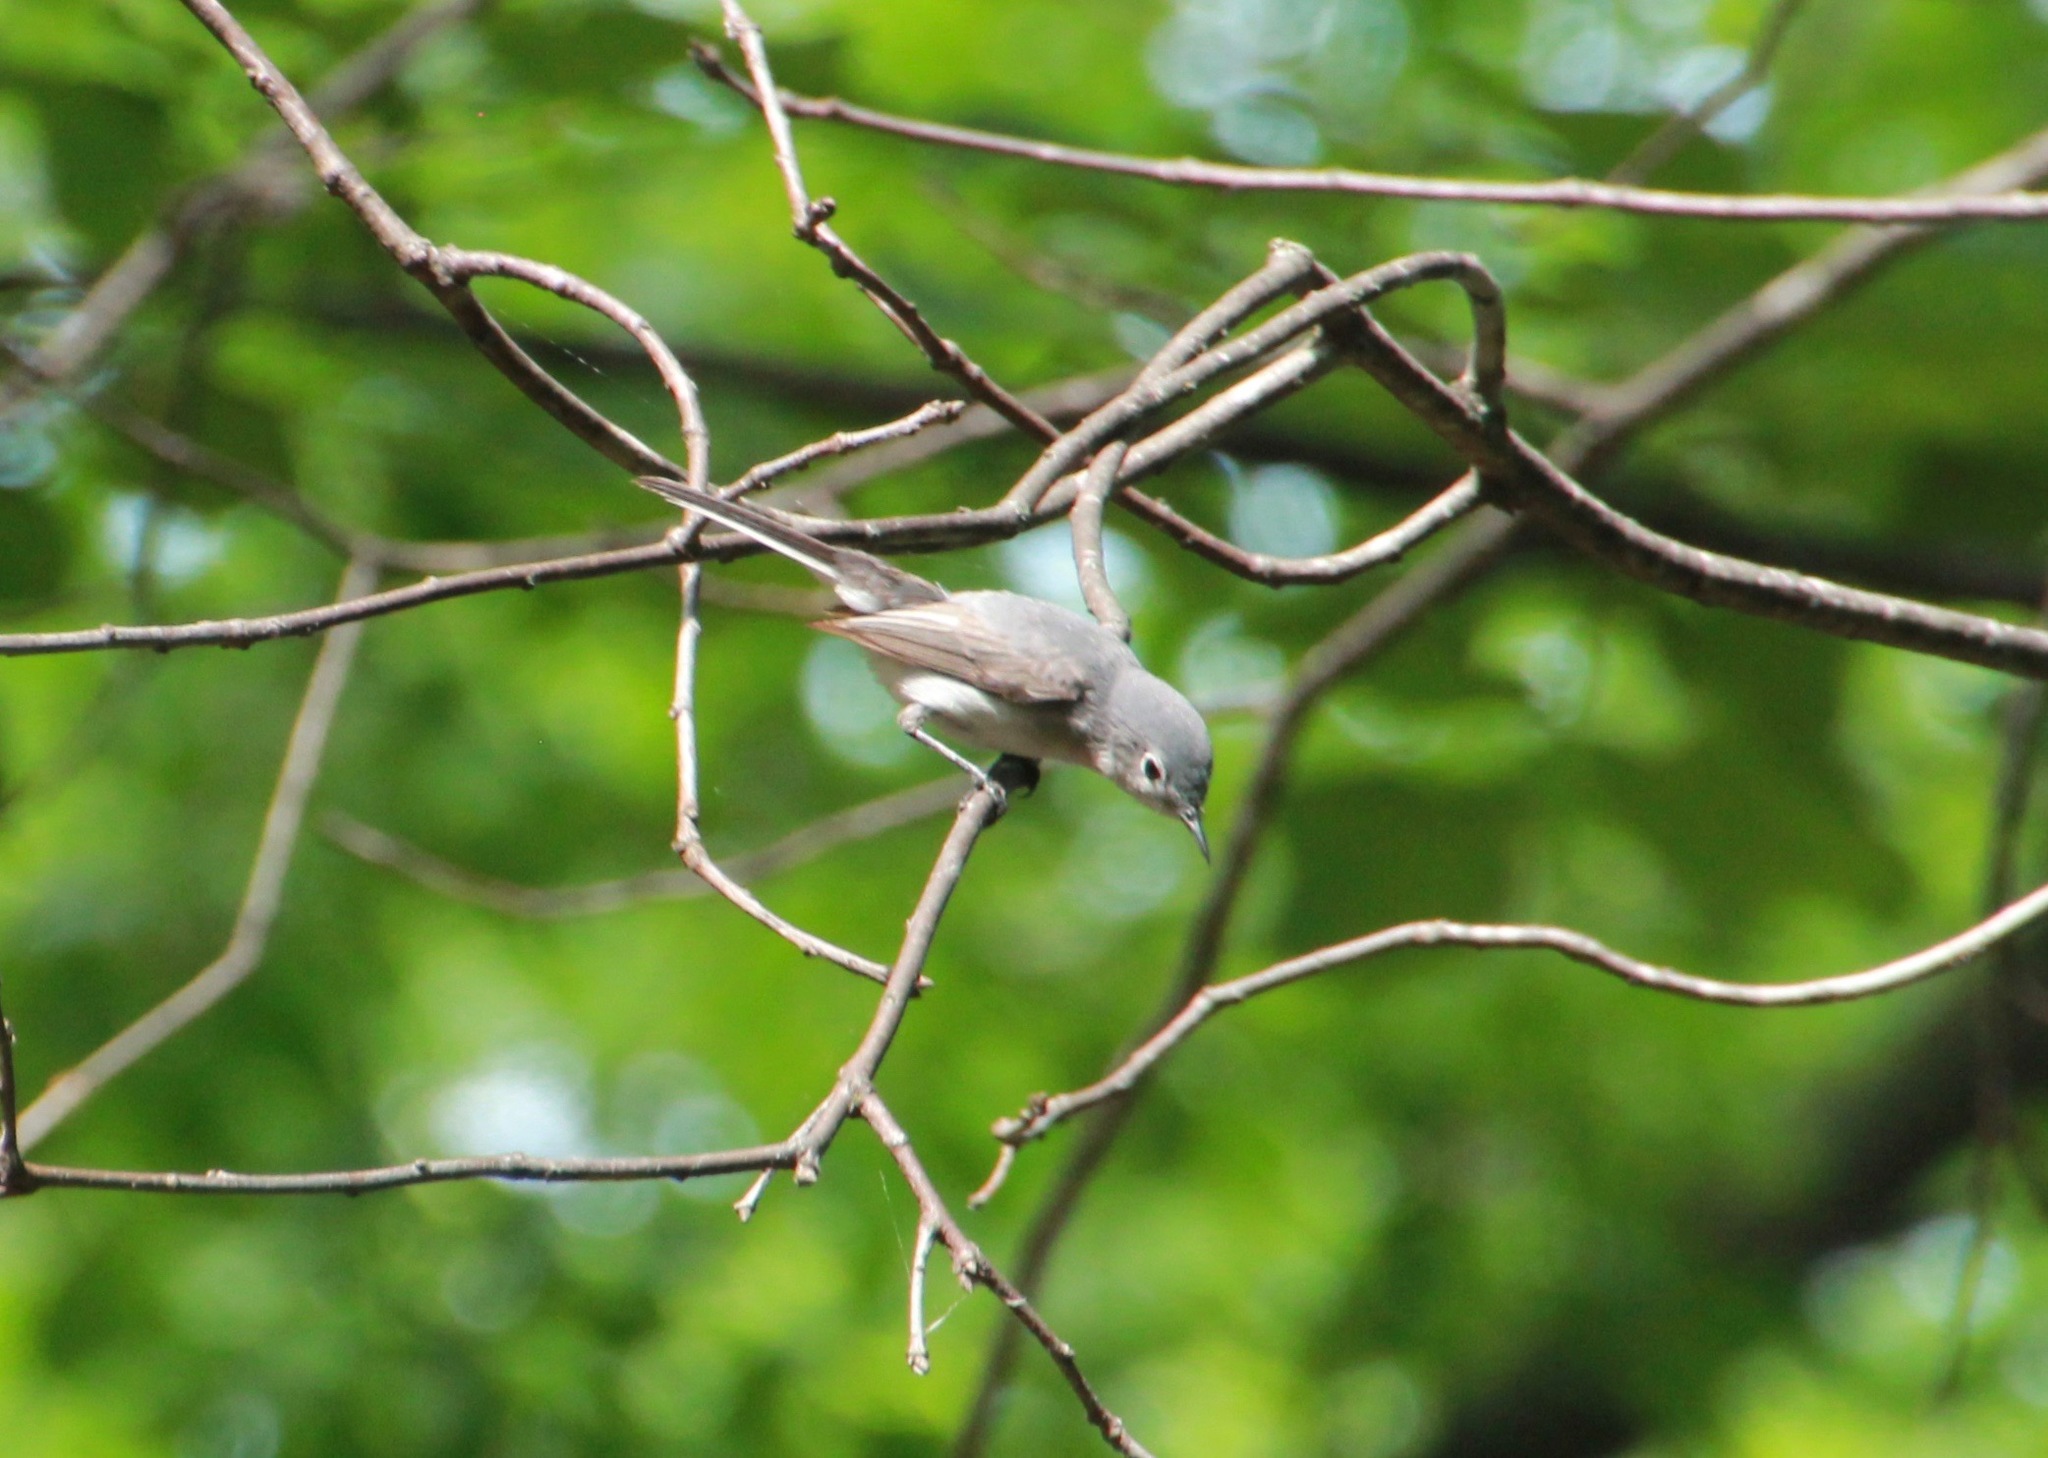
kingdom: Animalia
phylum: Chordata
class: Aves
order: Passeriformes
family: Polioptilidae
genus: Polioptila
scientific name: Polioptila caerulea
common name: Blue-gray gnatcatcher
